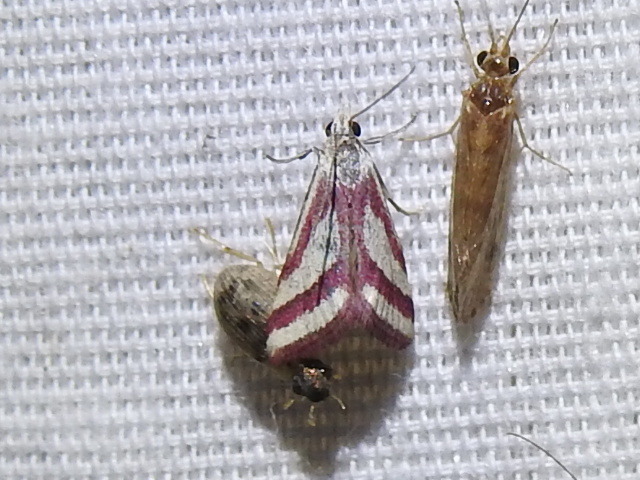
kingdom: Animalia
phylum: Arthropoda
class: Insecta
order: Lepidoptera
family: Crambidae
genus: Microtheoris
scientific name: Microtheoris vibicalis
